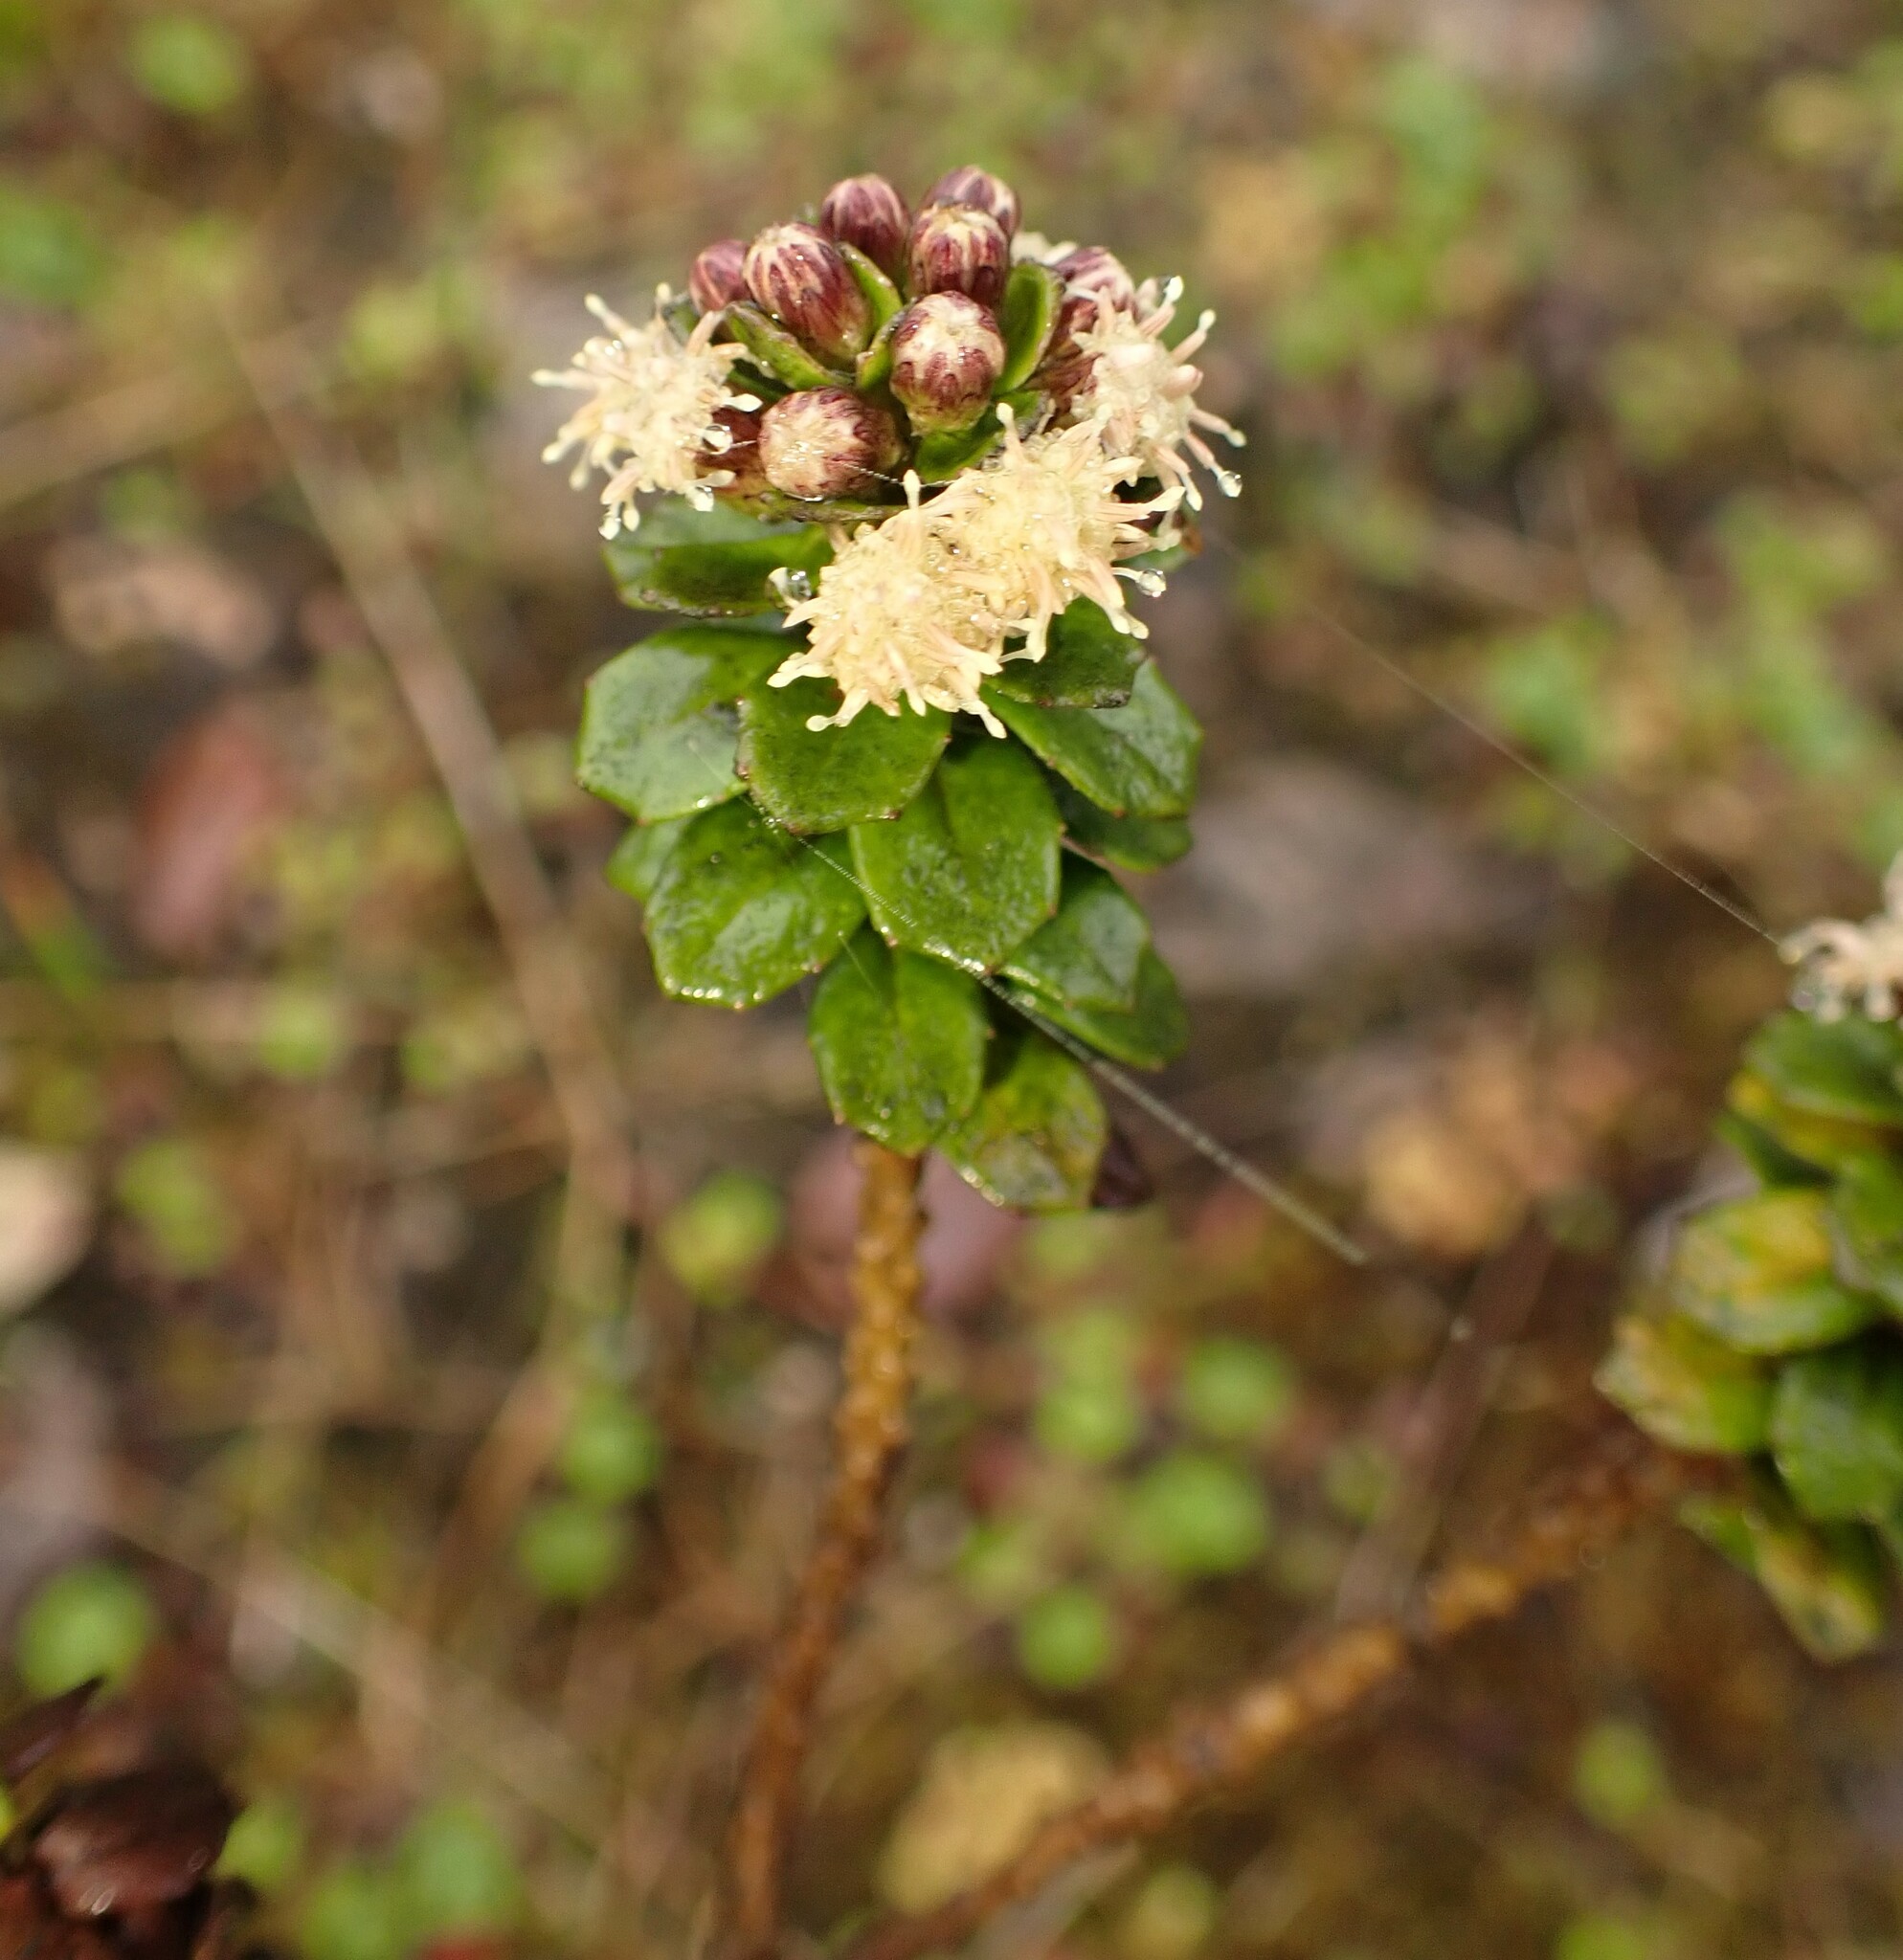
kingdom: Plantae
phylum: Tracheophyta
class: Magnoliopsida
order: Asterales
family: Asteraceae
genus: Baccharis
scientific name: Baccharis tricuneata
